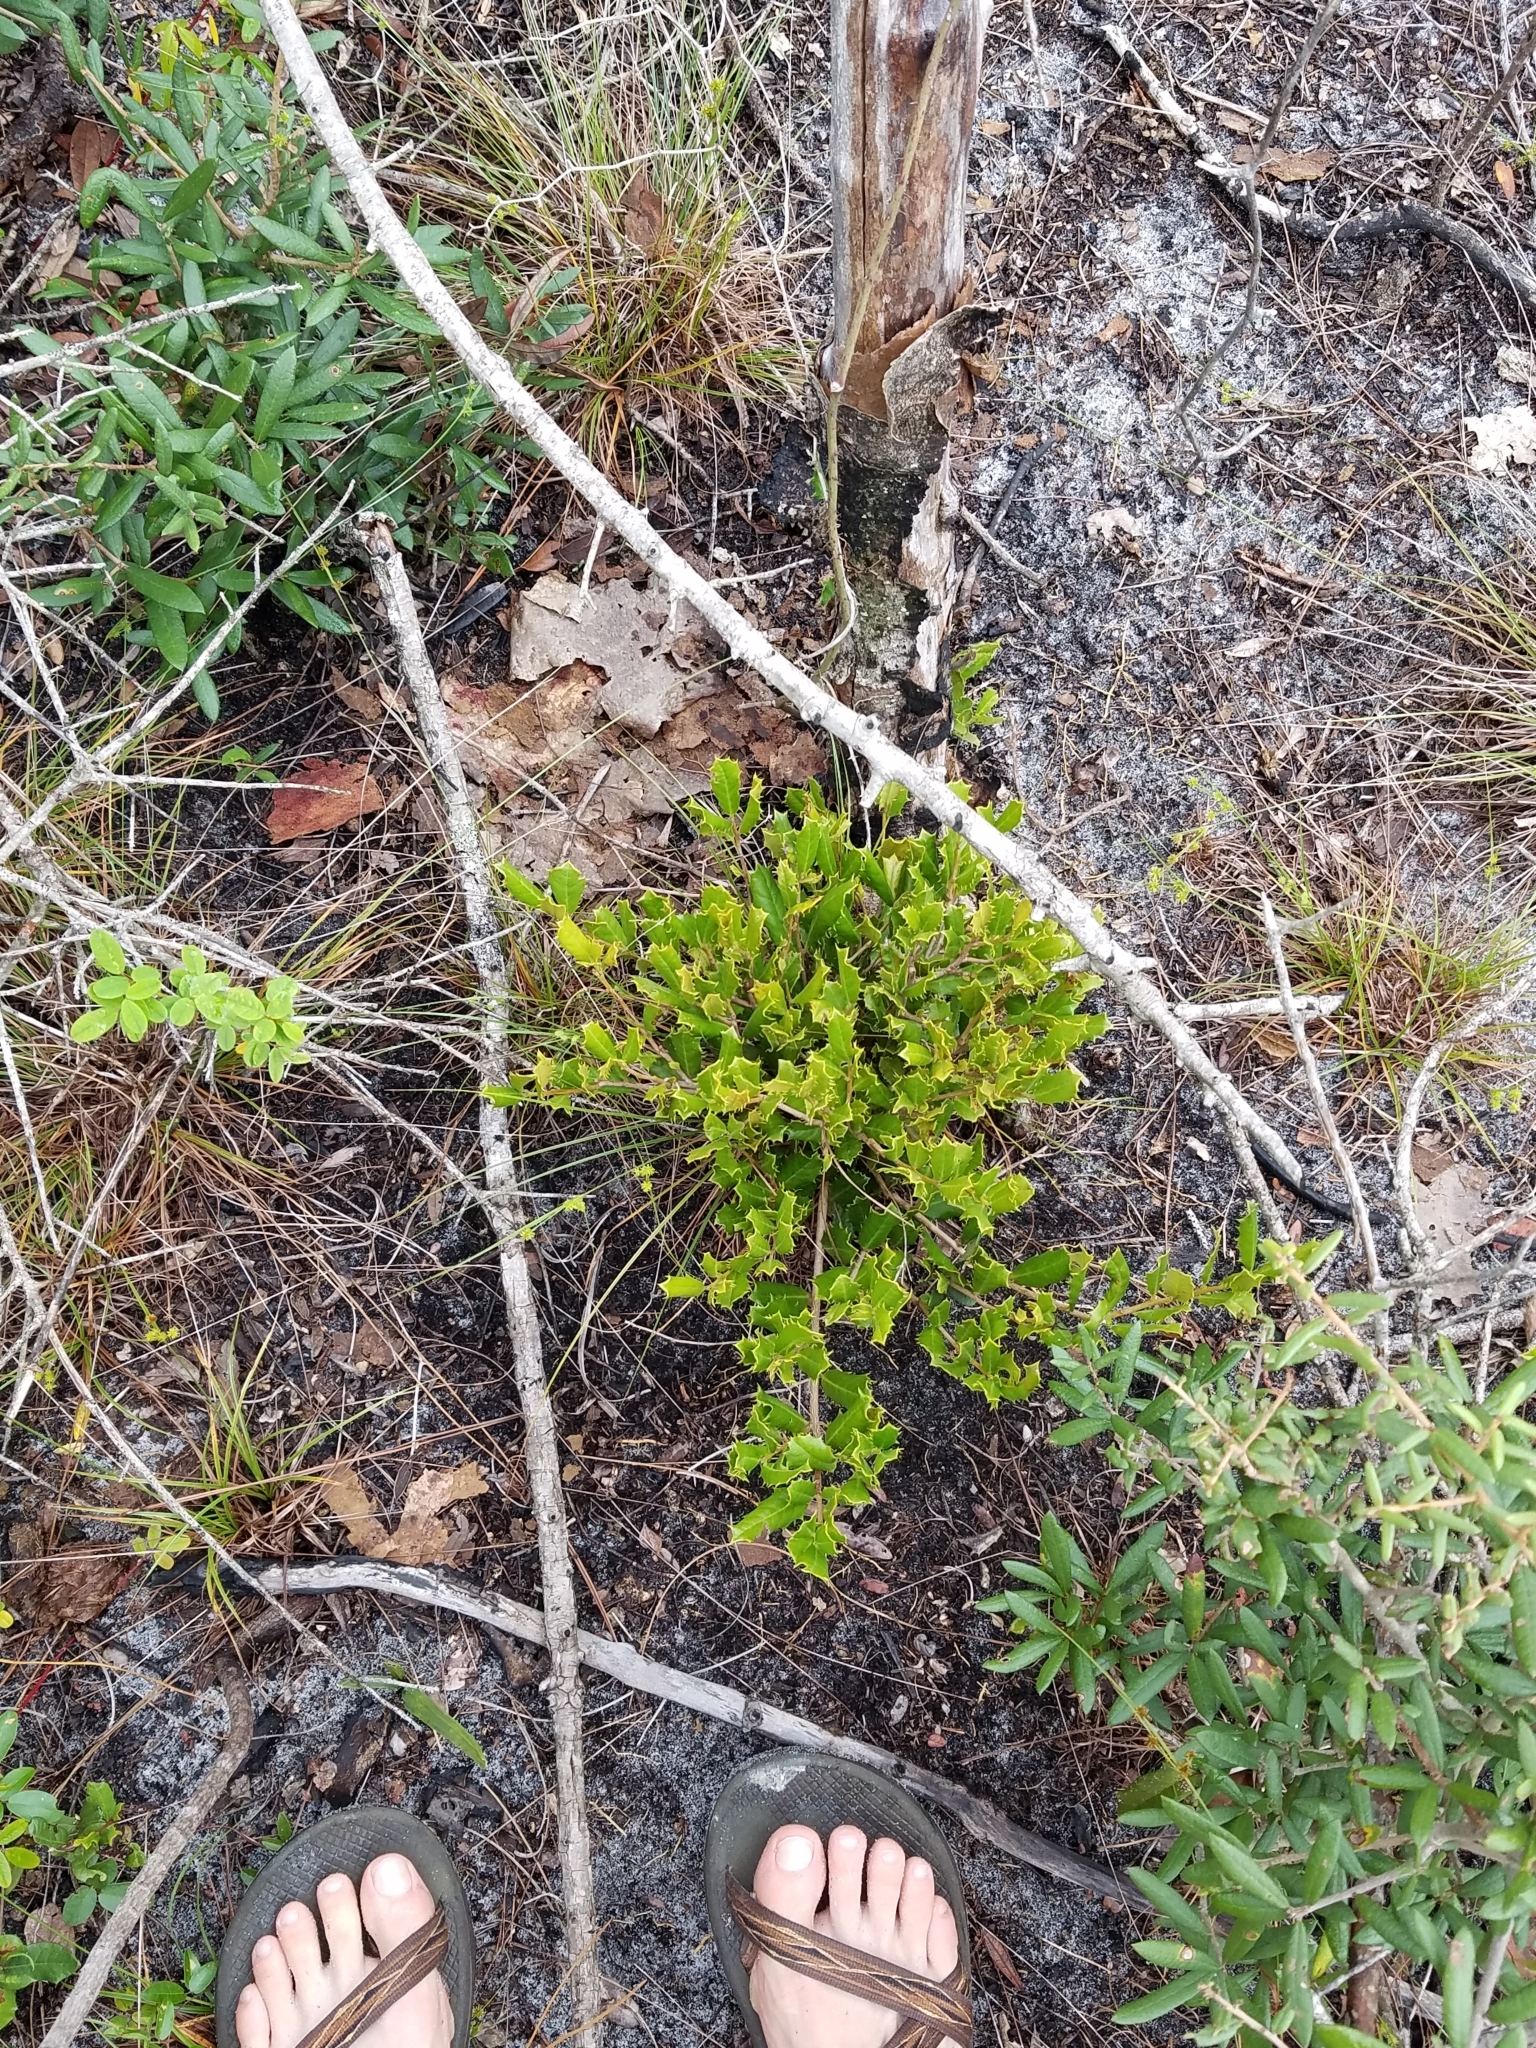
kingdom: Plantae
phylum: Tracheophyta
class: Magnoliopsida
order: Aquifoliales
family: Aquifoliaceae
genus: Ilex
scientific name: Ilex opaca
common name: American holly
